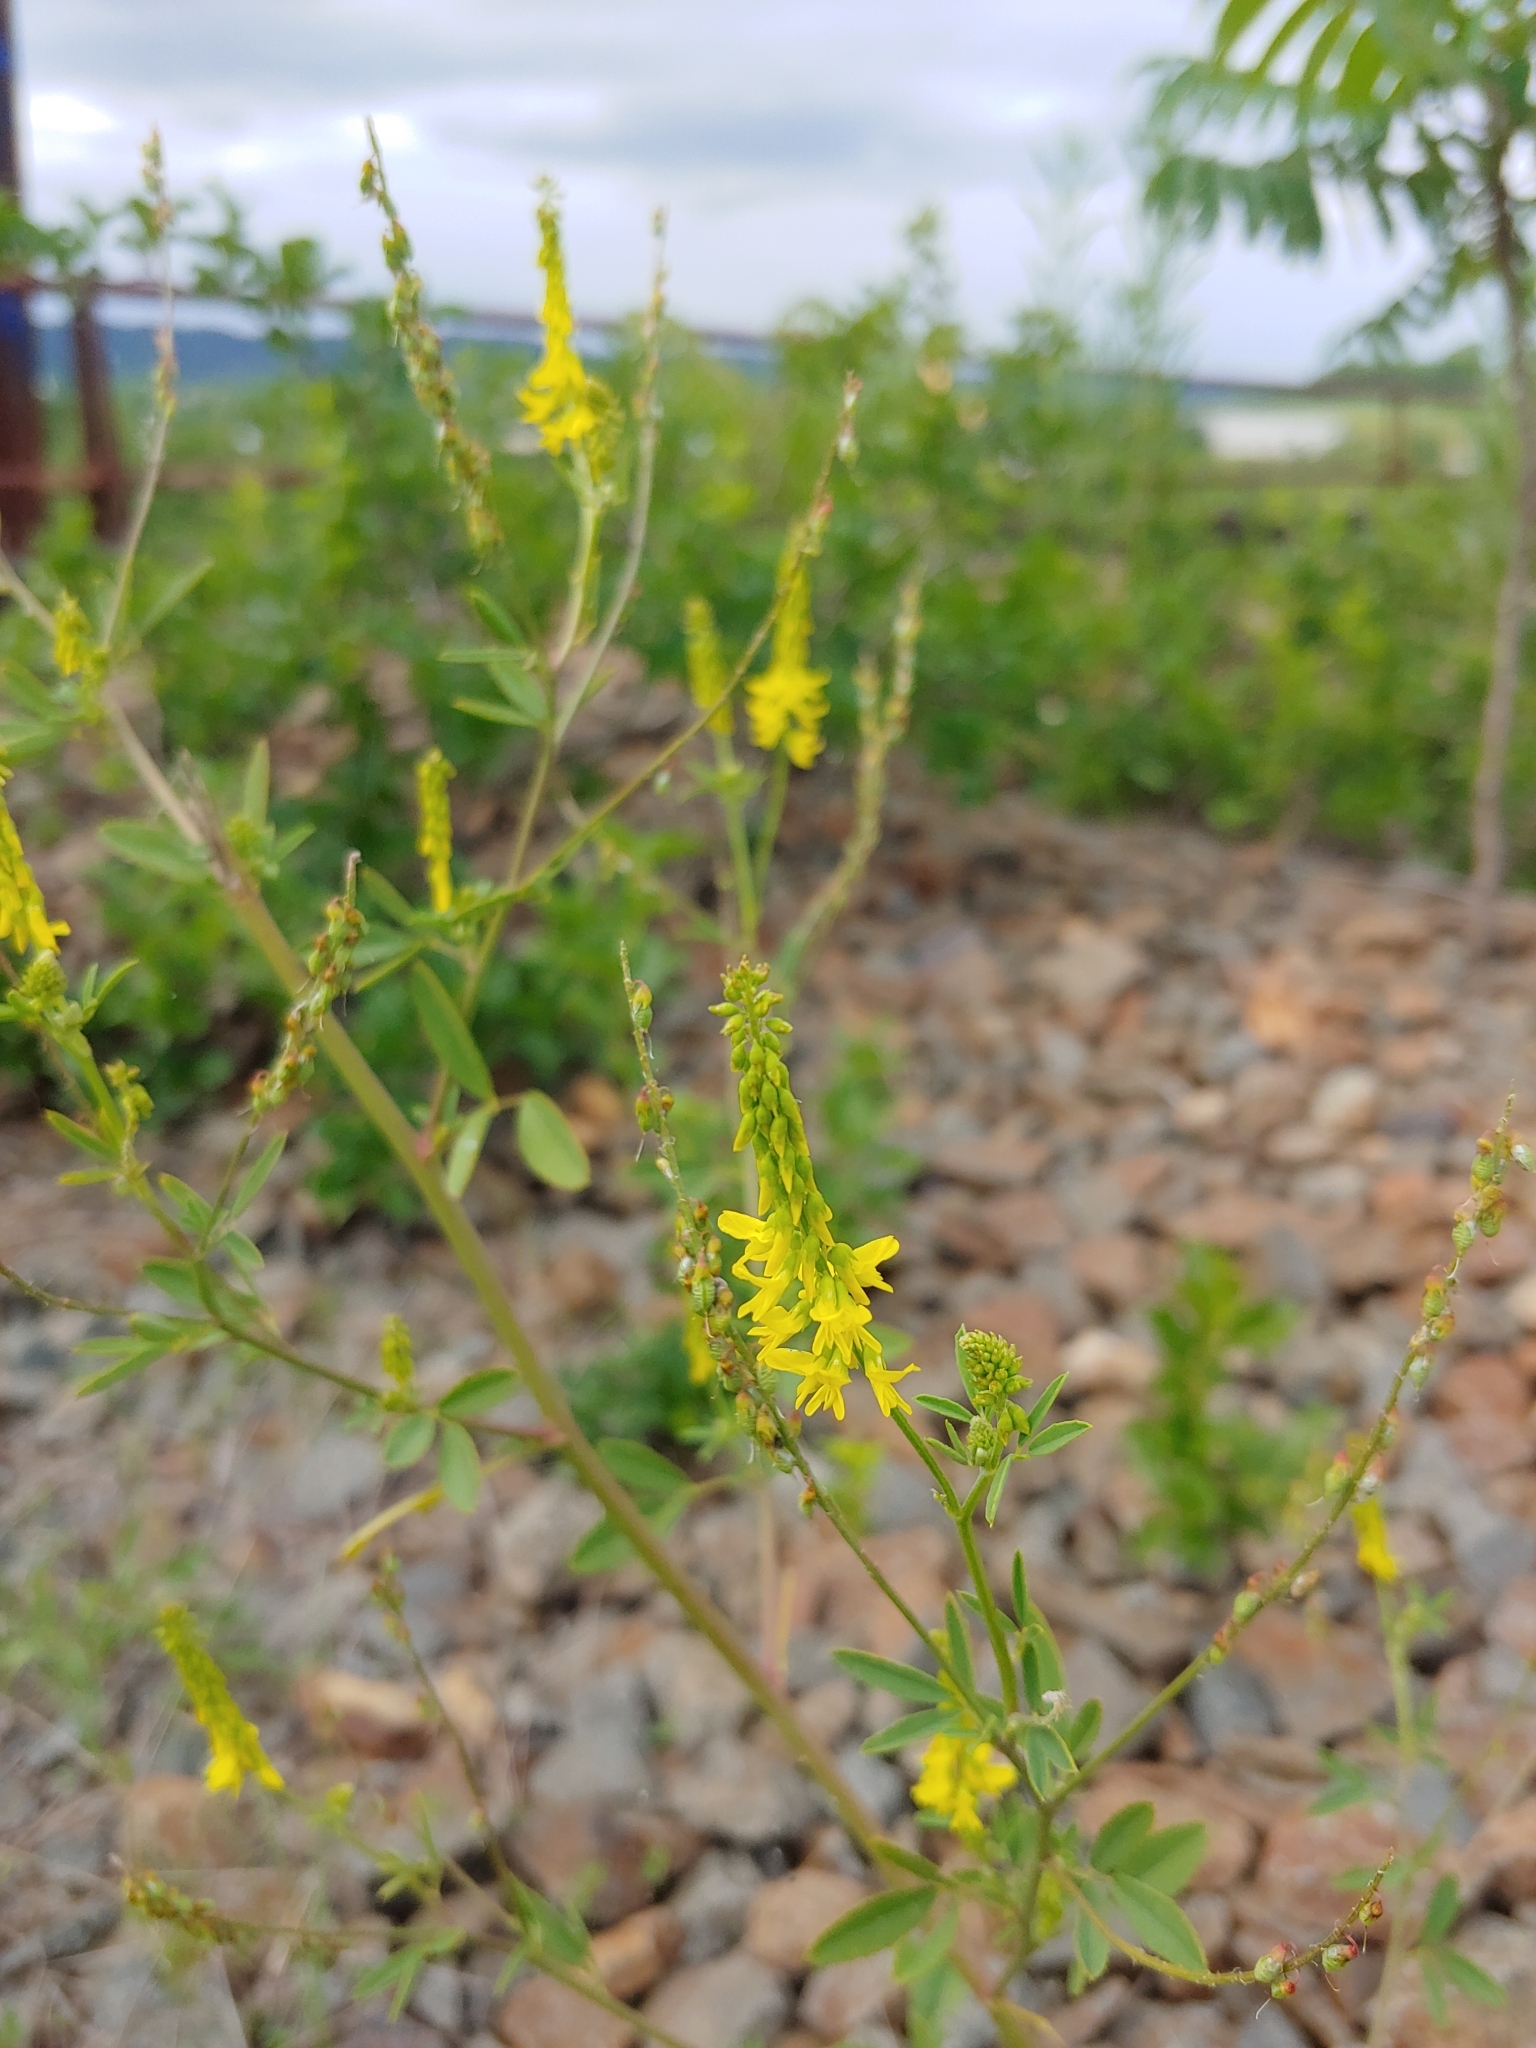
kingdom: Plantae
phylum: Tracheophyta
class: Magnoliopsida
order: Fabales
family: Fabaceae
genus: Melilotus
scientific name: Melilotus officinalis
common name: Sweetclover
